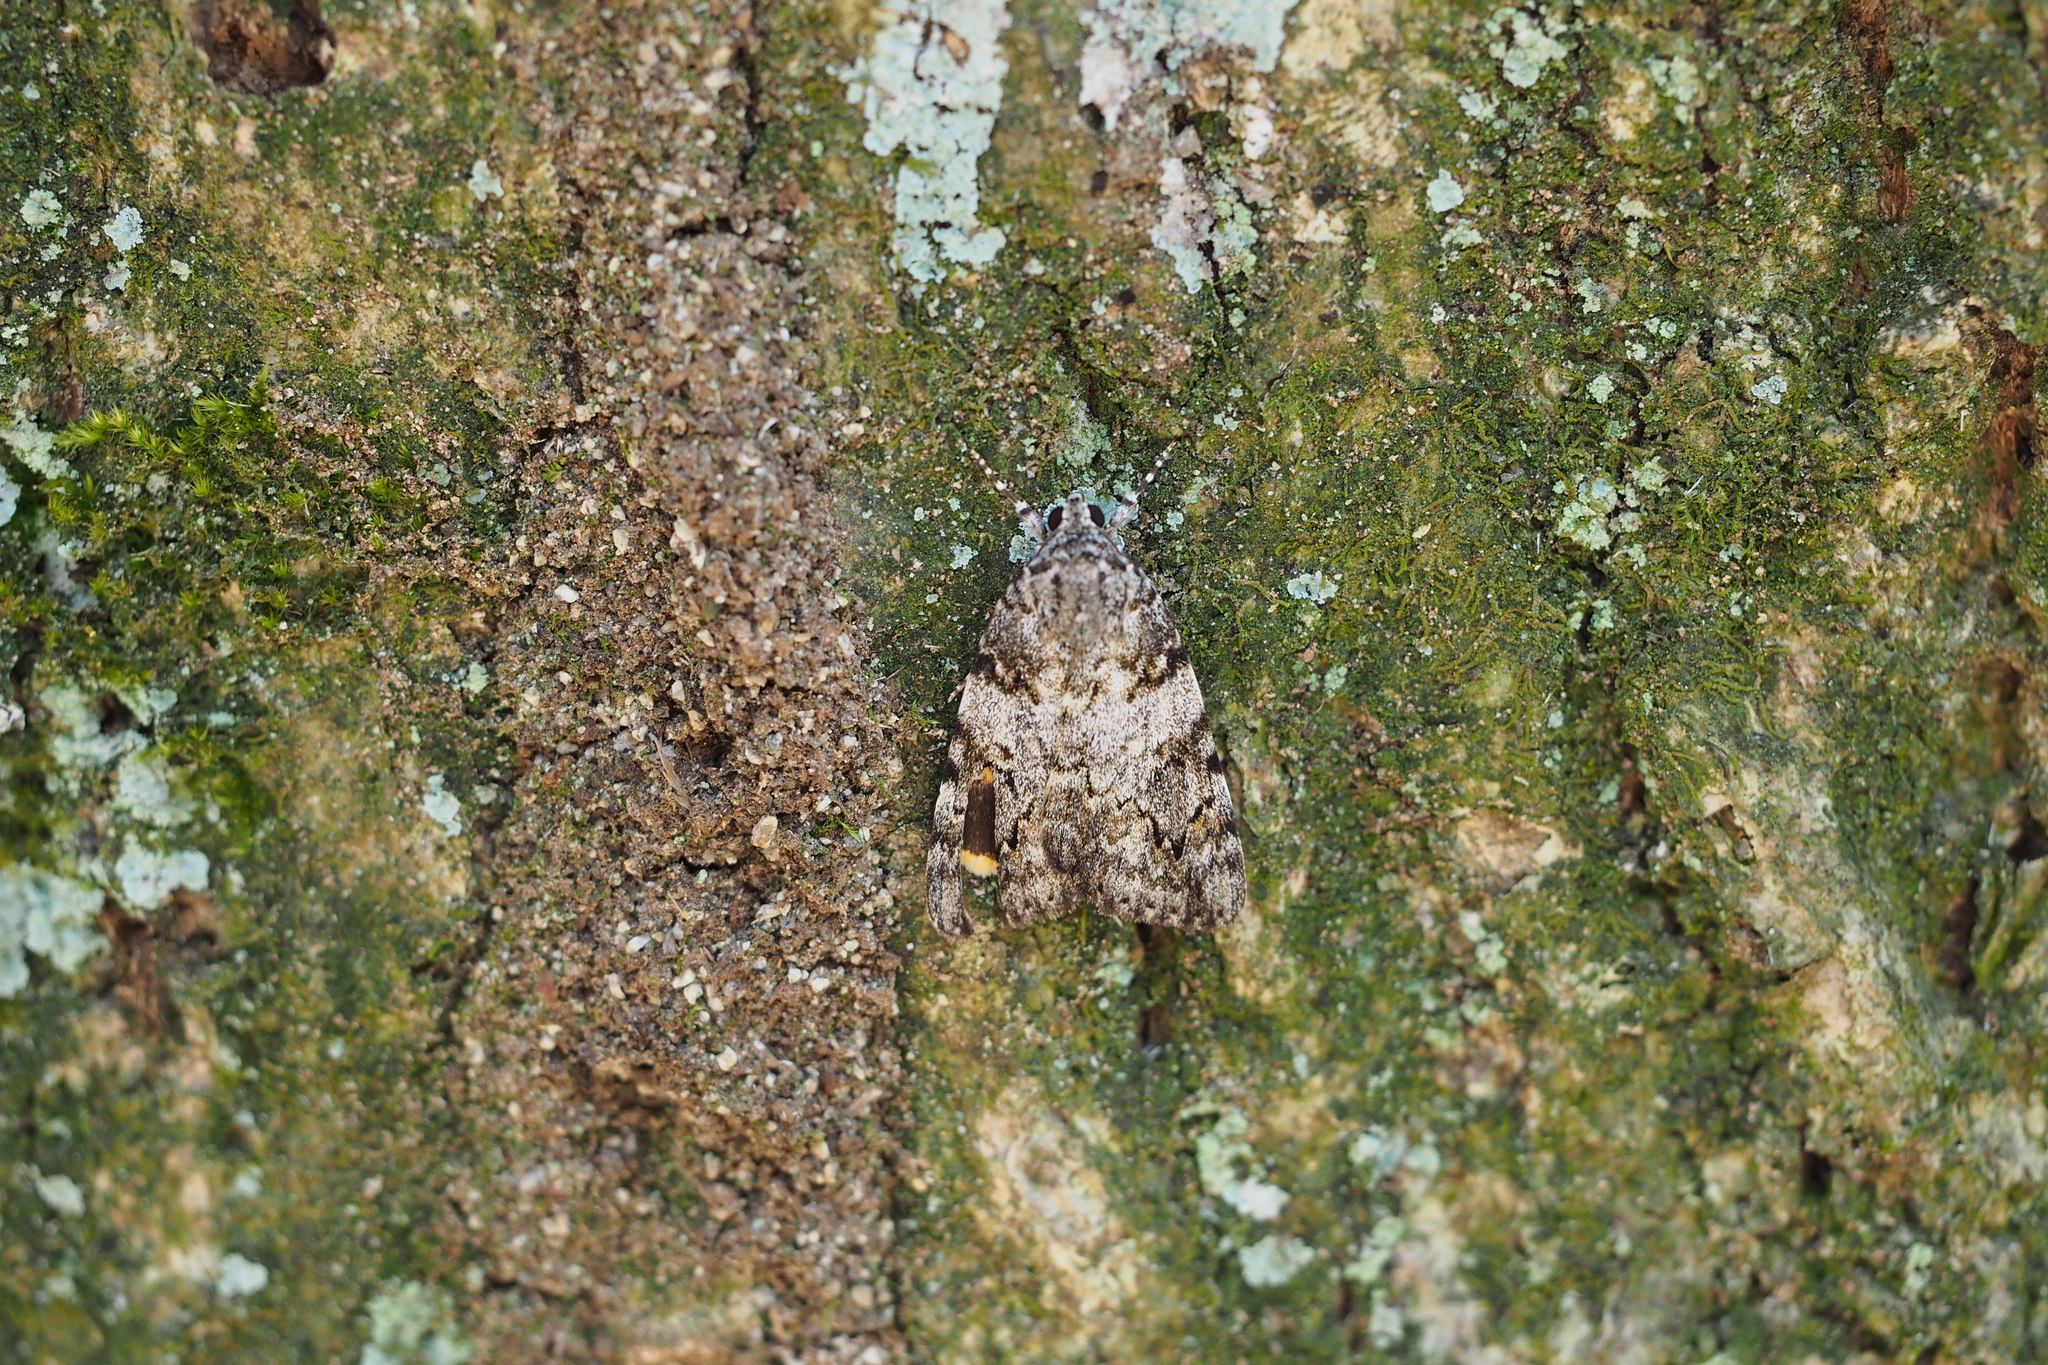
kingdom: Animalia
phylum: Arthropoda
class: Insecta
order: Lepidoptera
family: Erebidae
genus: Catocala
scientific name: Catocala duplicata
